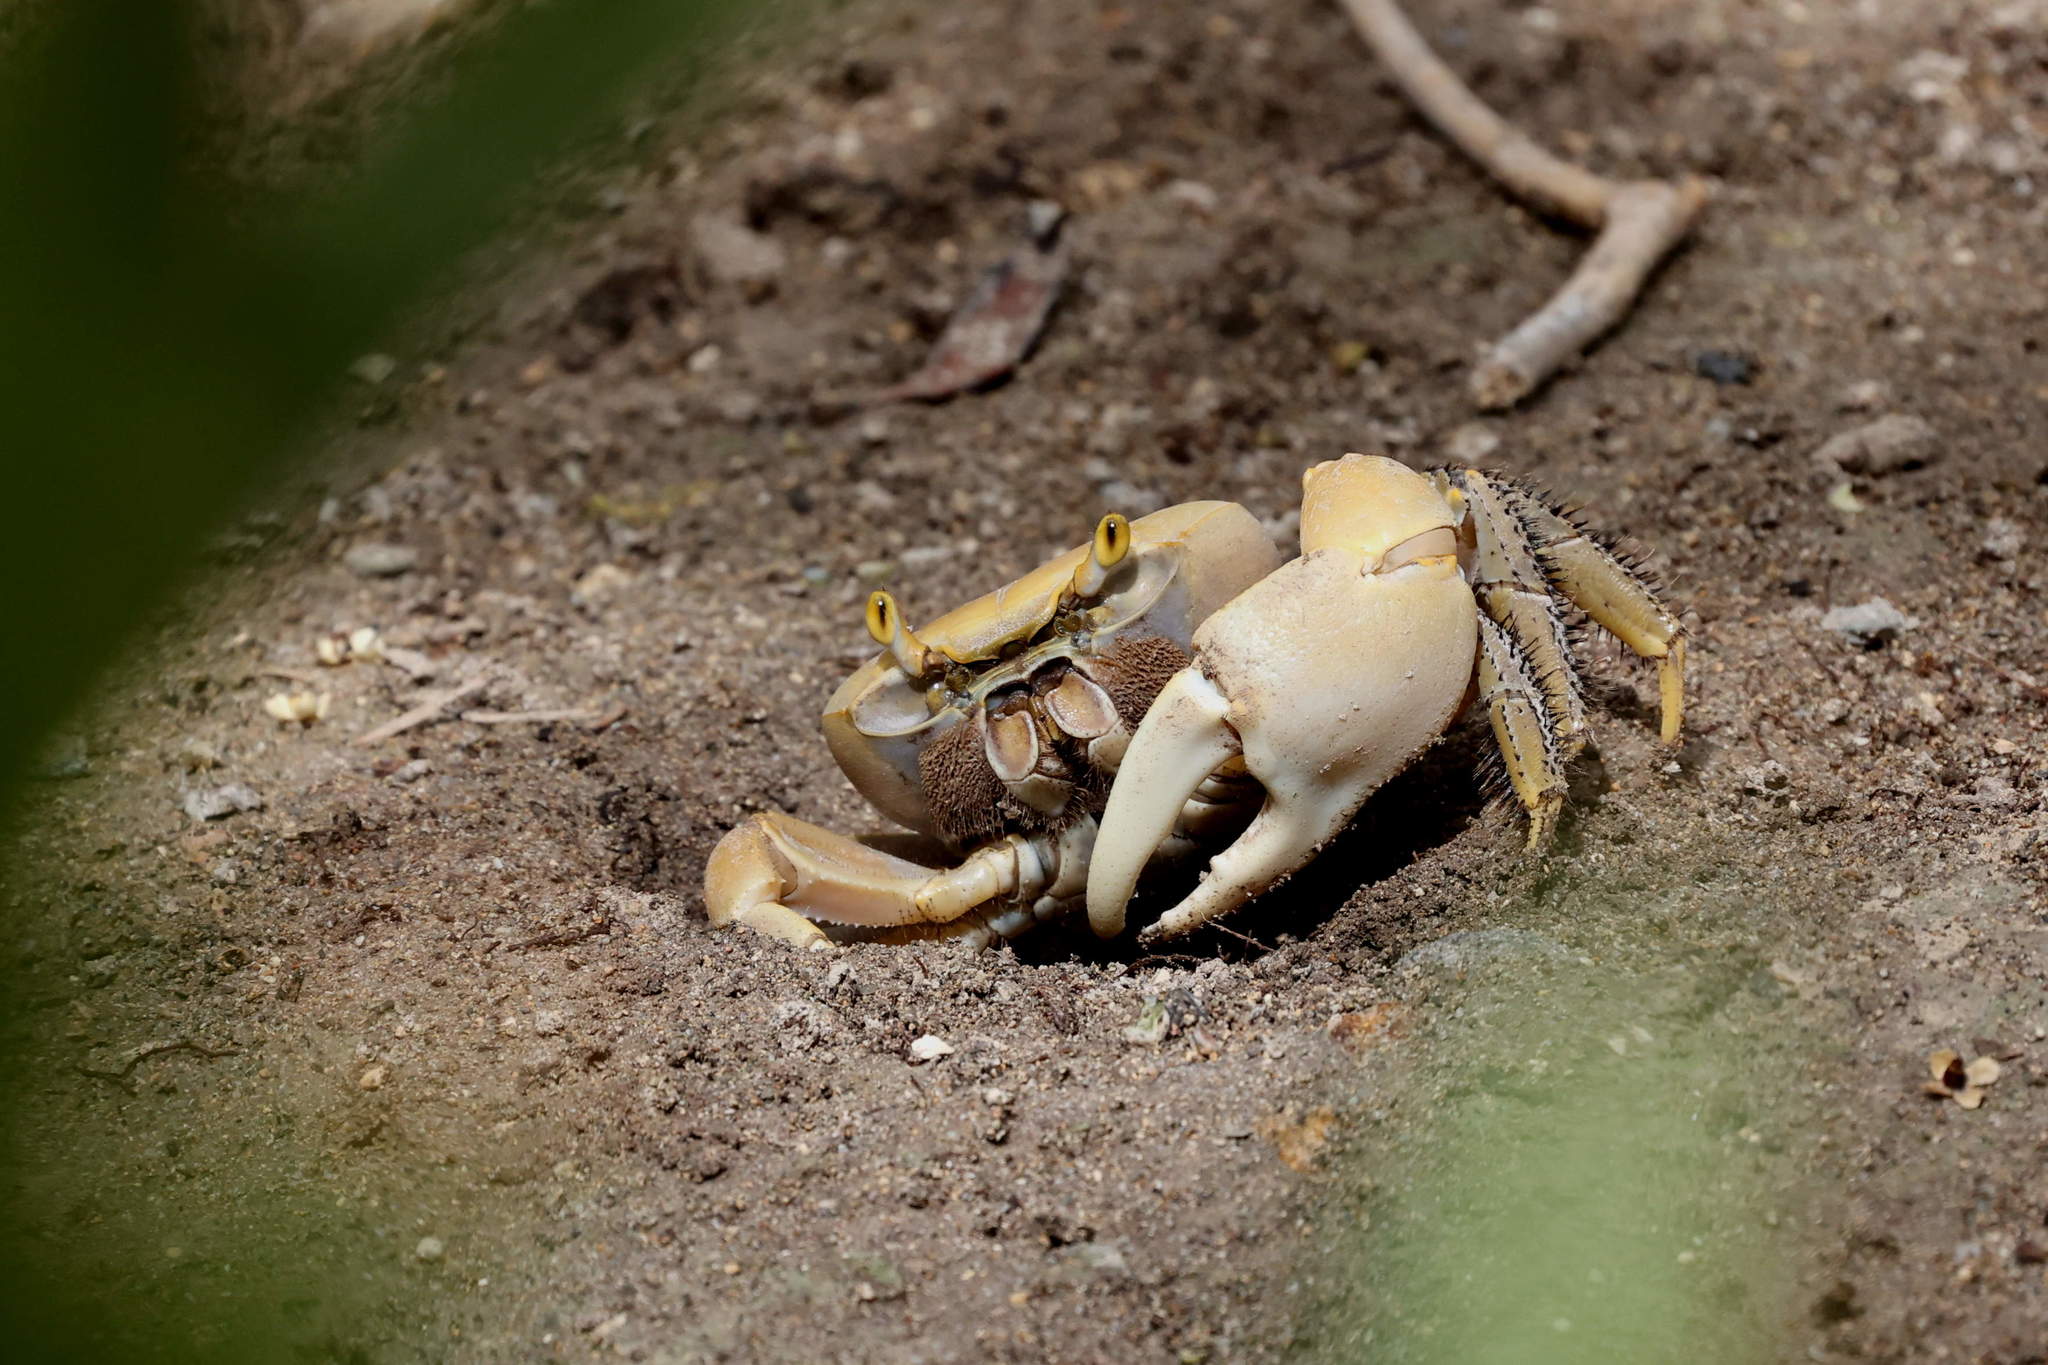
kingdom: Animalia
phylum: Arthropoda
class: Malacostraca
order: Decapoda
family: Gecarcinidae
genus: Cardisoma
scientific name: Cardisoma guanhumi
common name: Great land crab
